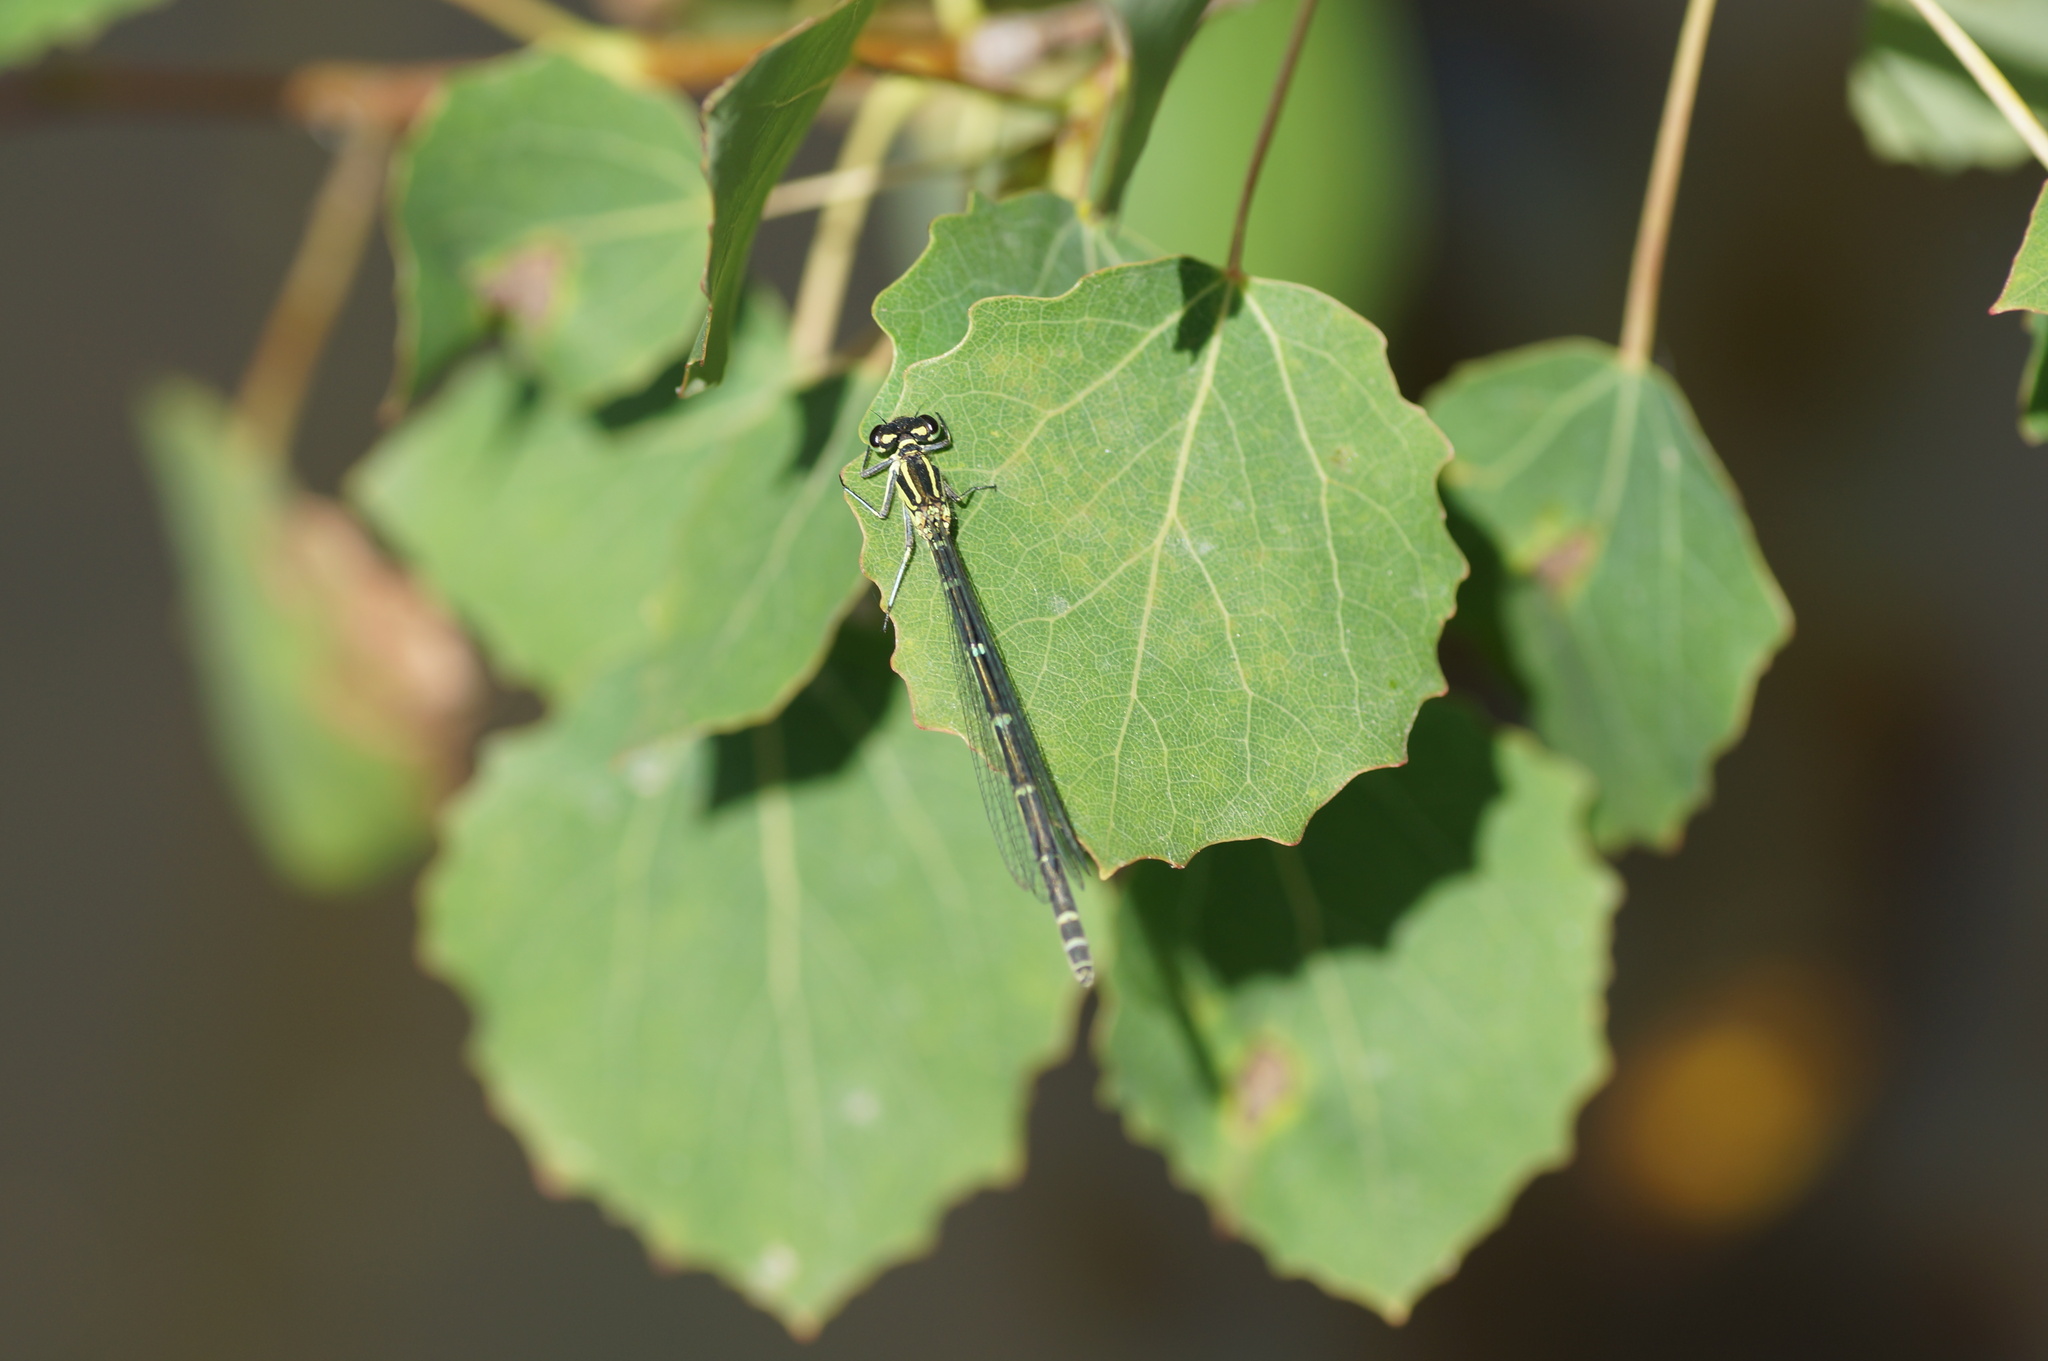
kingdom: Animalia
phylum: Arthropoda
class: Insecta
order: Odonata
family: Coenagrionidae
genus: Coenagrion
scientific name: Coenagrion puella
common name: Azure damselfly
